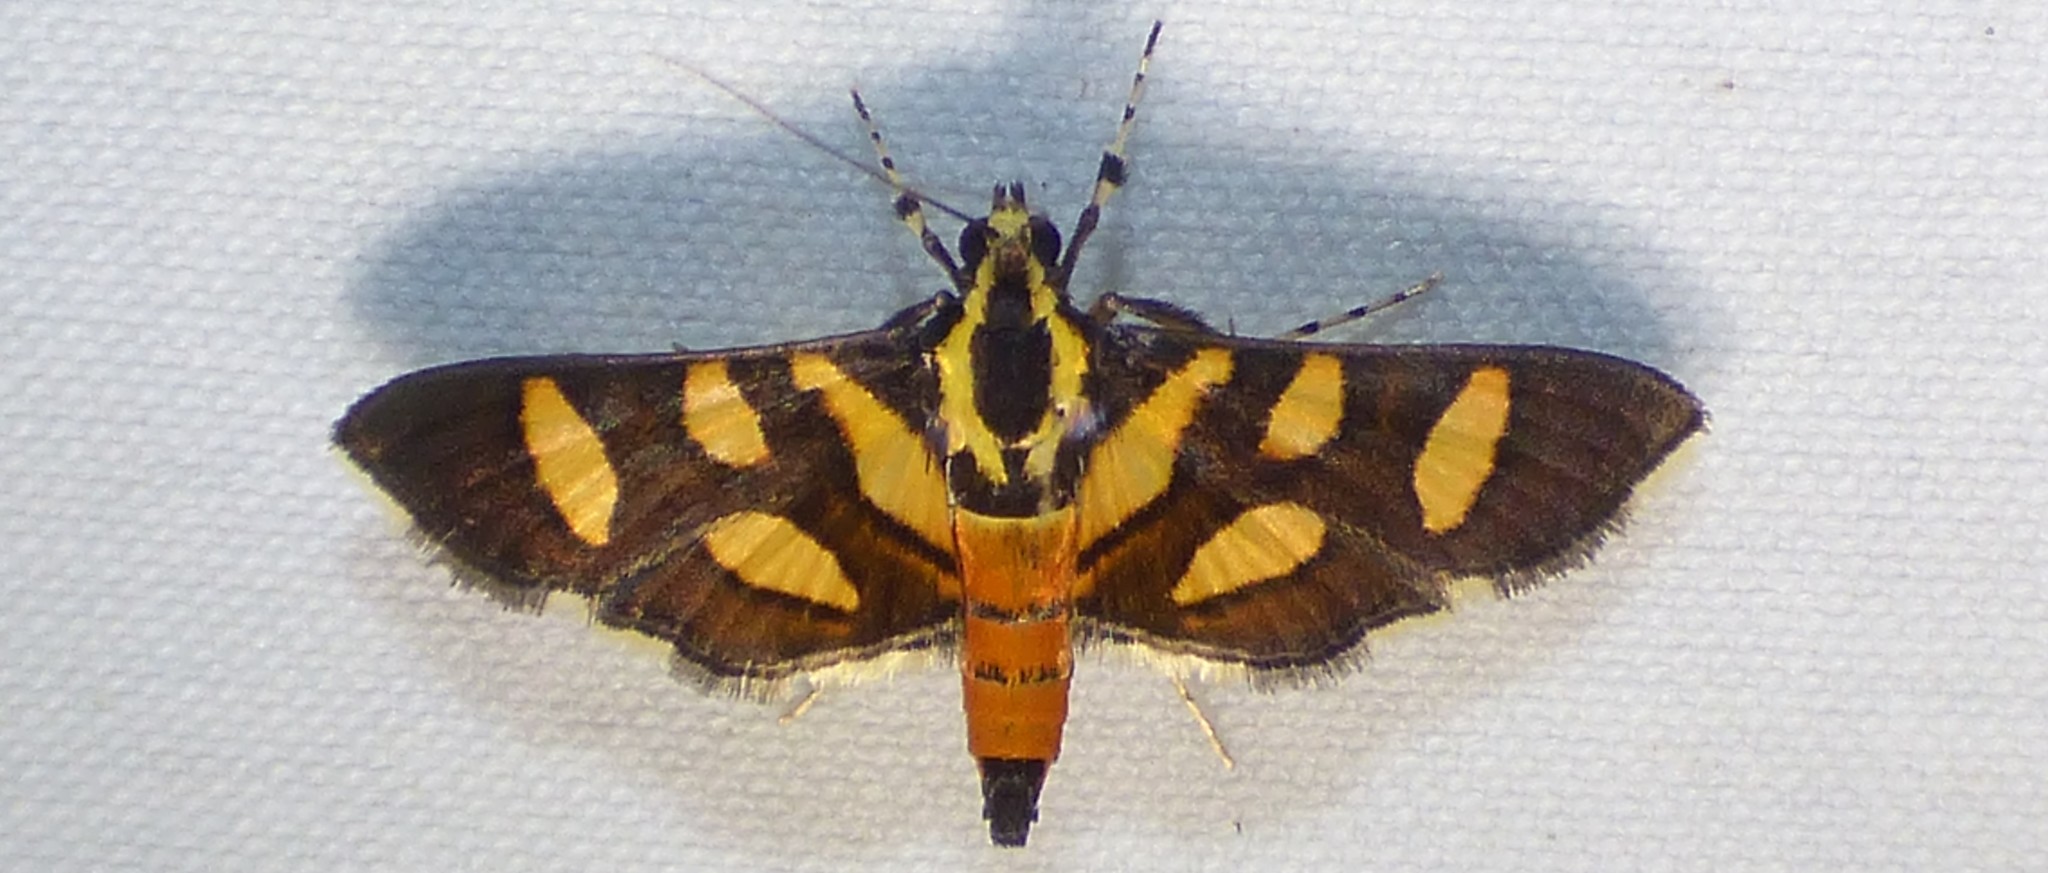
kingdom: Animalia
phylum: Arthropoda
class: Insecta
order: Lepidoptera
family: Crambidae
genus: Syngamia
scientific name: Syngamia florella
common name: Orange-spotted flower moth
